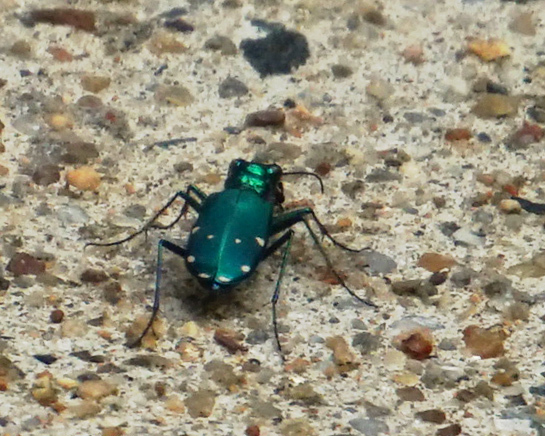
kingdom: Animalia
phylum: Arthropoda
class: Insecta
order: Coleoptera
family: Carabidae
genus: Cicindela
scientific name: Cicindela sexguttata
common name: Six-spotted tiger beetle
